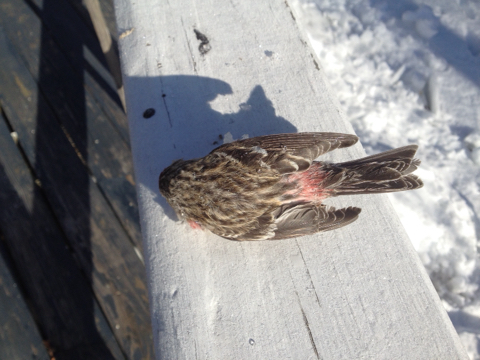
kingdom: Animalia
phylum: Chordata
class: Aves
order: Passeriformes
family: Fringillidae
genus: Acanthis
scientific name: Acanthis flammea
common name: Common redpoll
